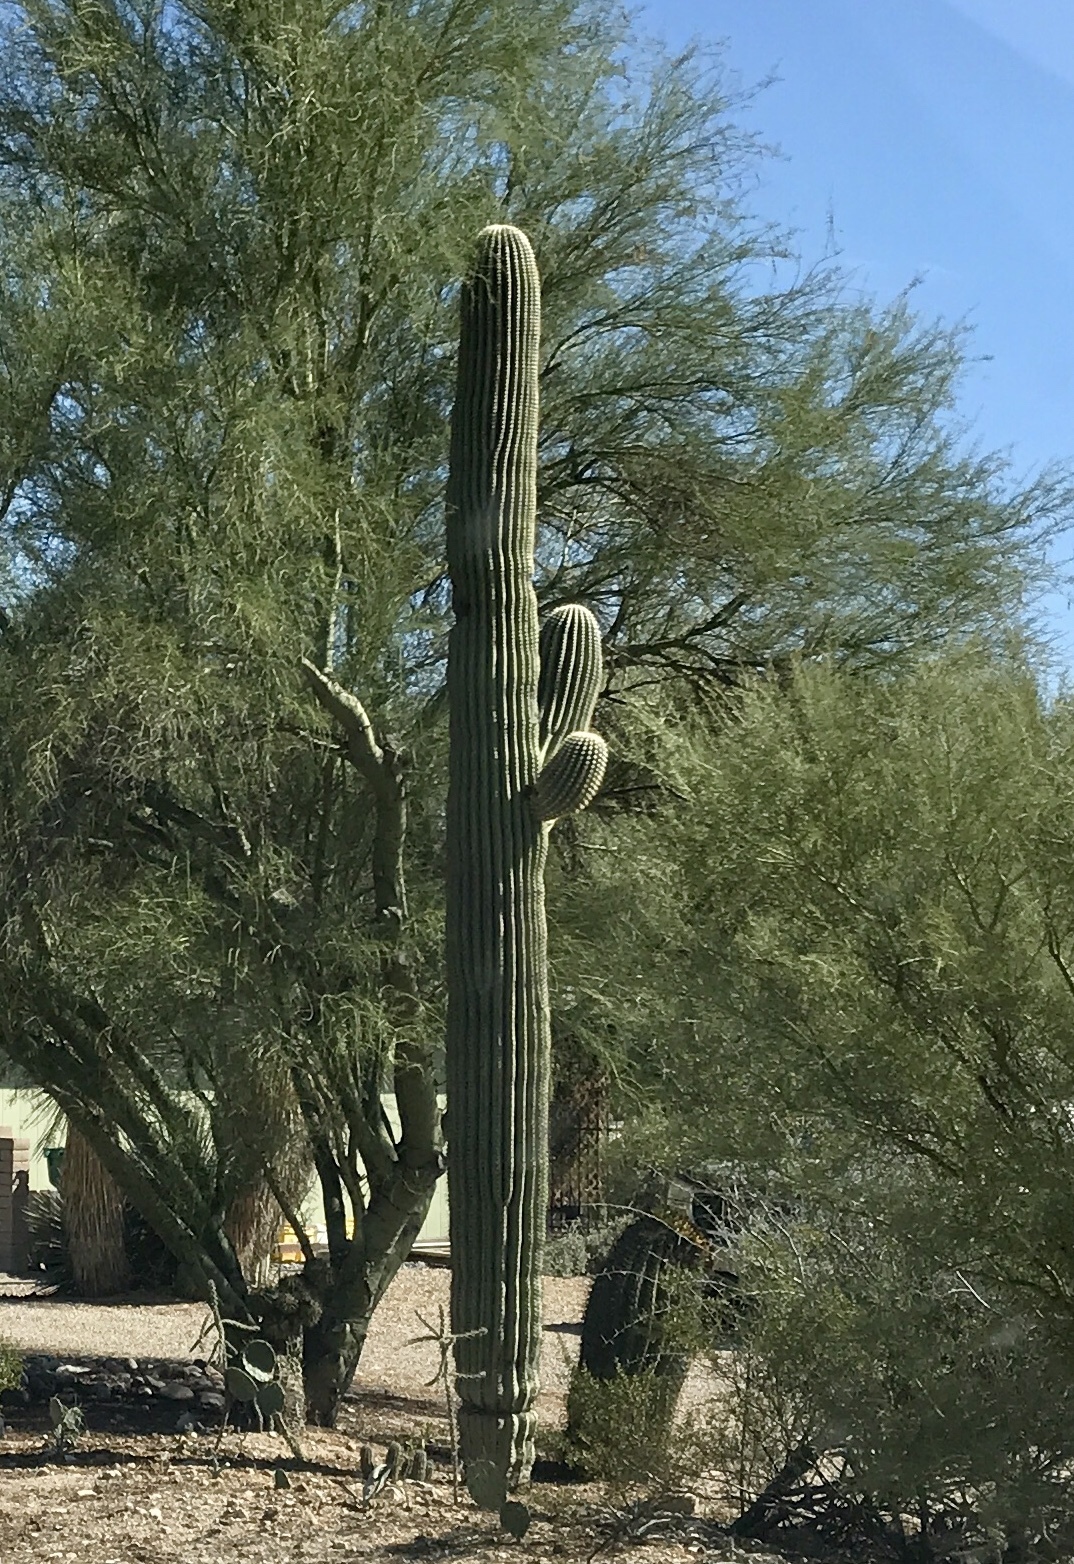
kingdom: Plantae
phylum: Tracheophyta
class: Magnoliopsida
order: Caryophyllales
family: Cactaceae
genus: Carnegiea
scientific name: Carnegiea gigantea
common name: Saguaro
